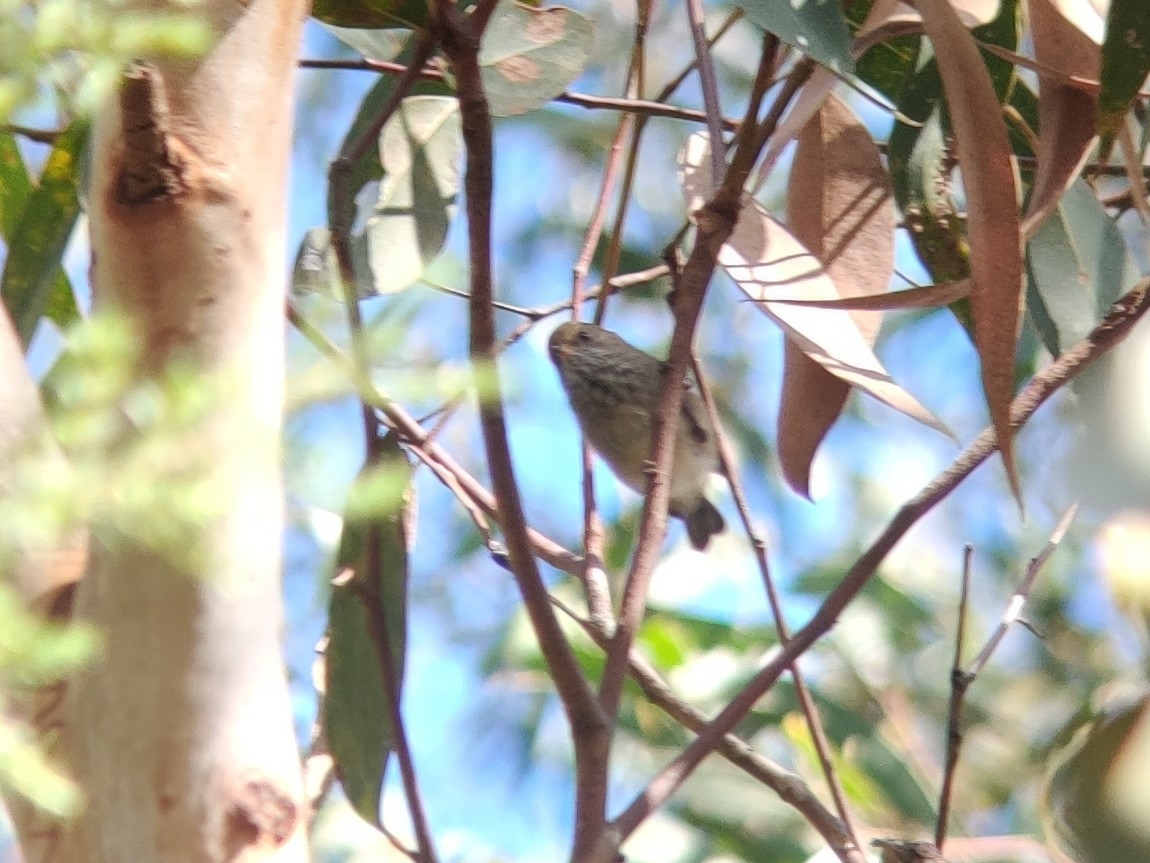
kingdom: Animalia
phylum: Chordata
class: Aves
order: Passeriformes
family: Acanthizidae
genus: Acanthiza
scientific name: Acanthiza pusilla
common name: Brown thornbill
